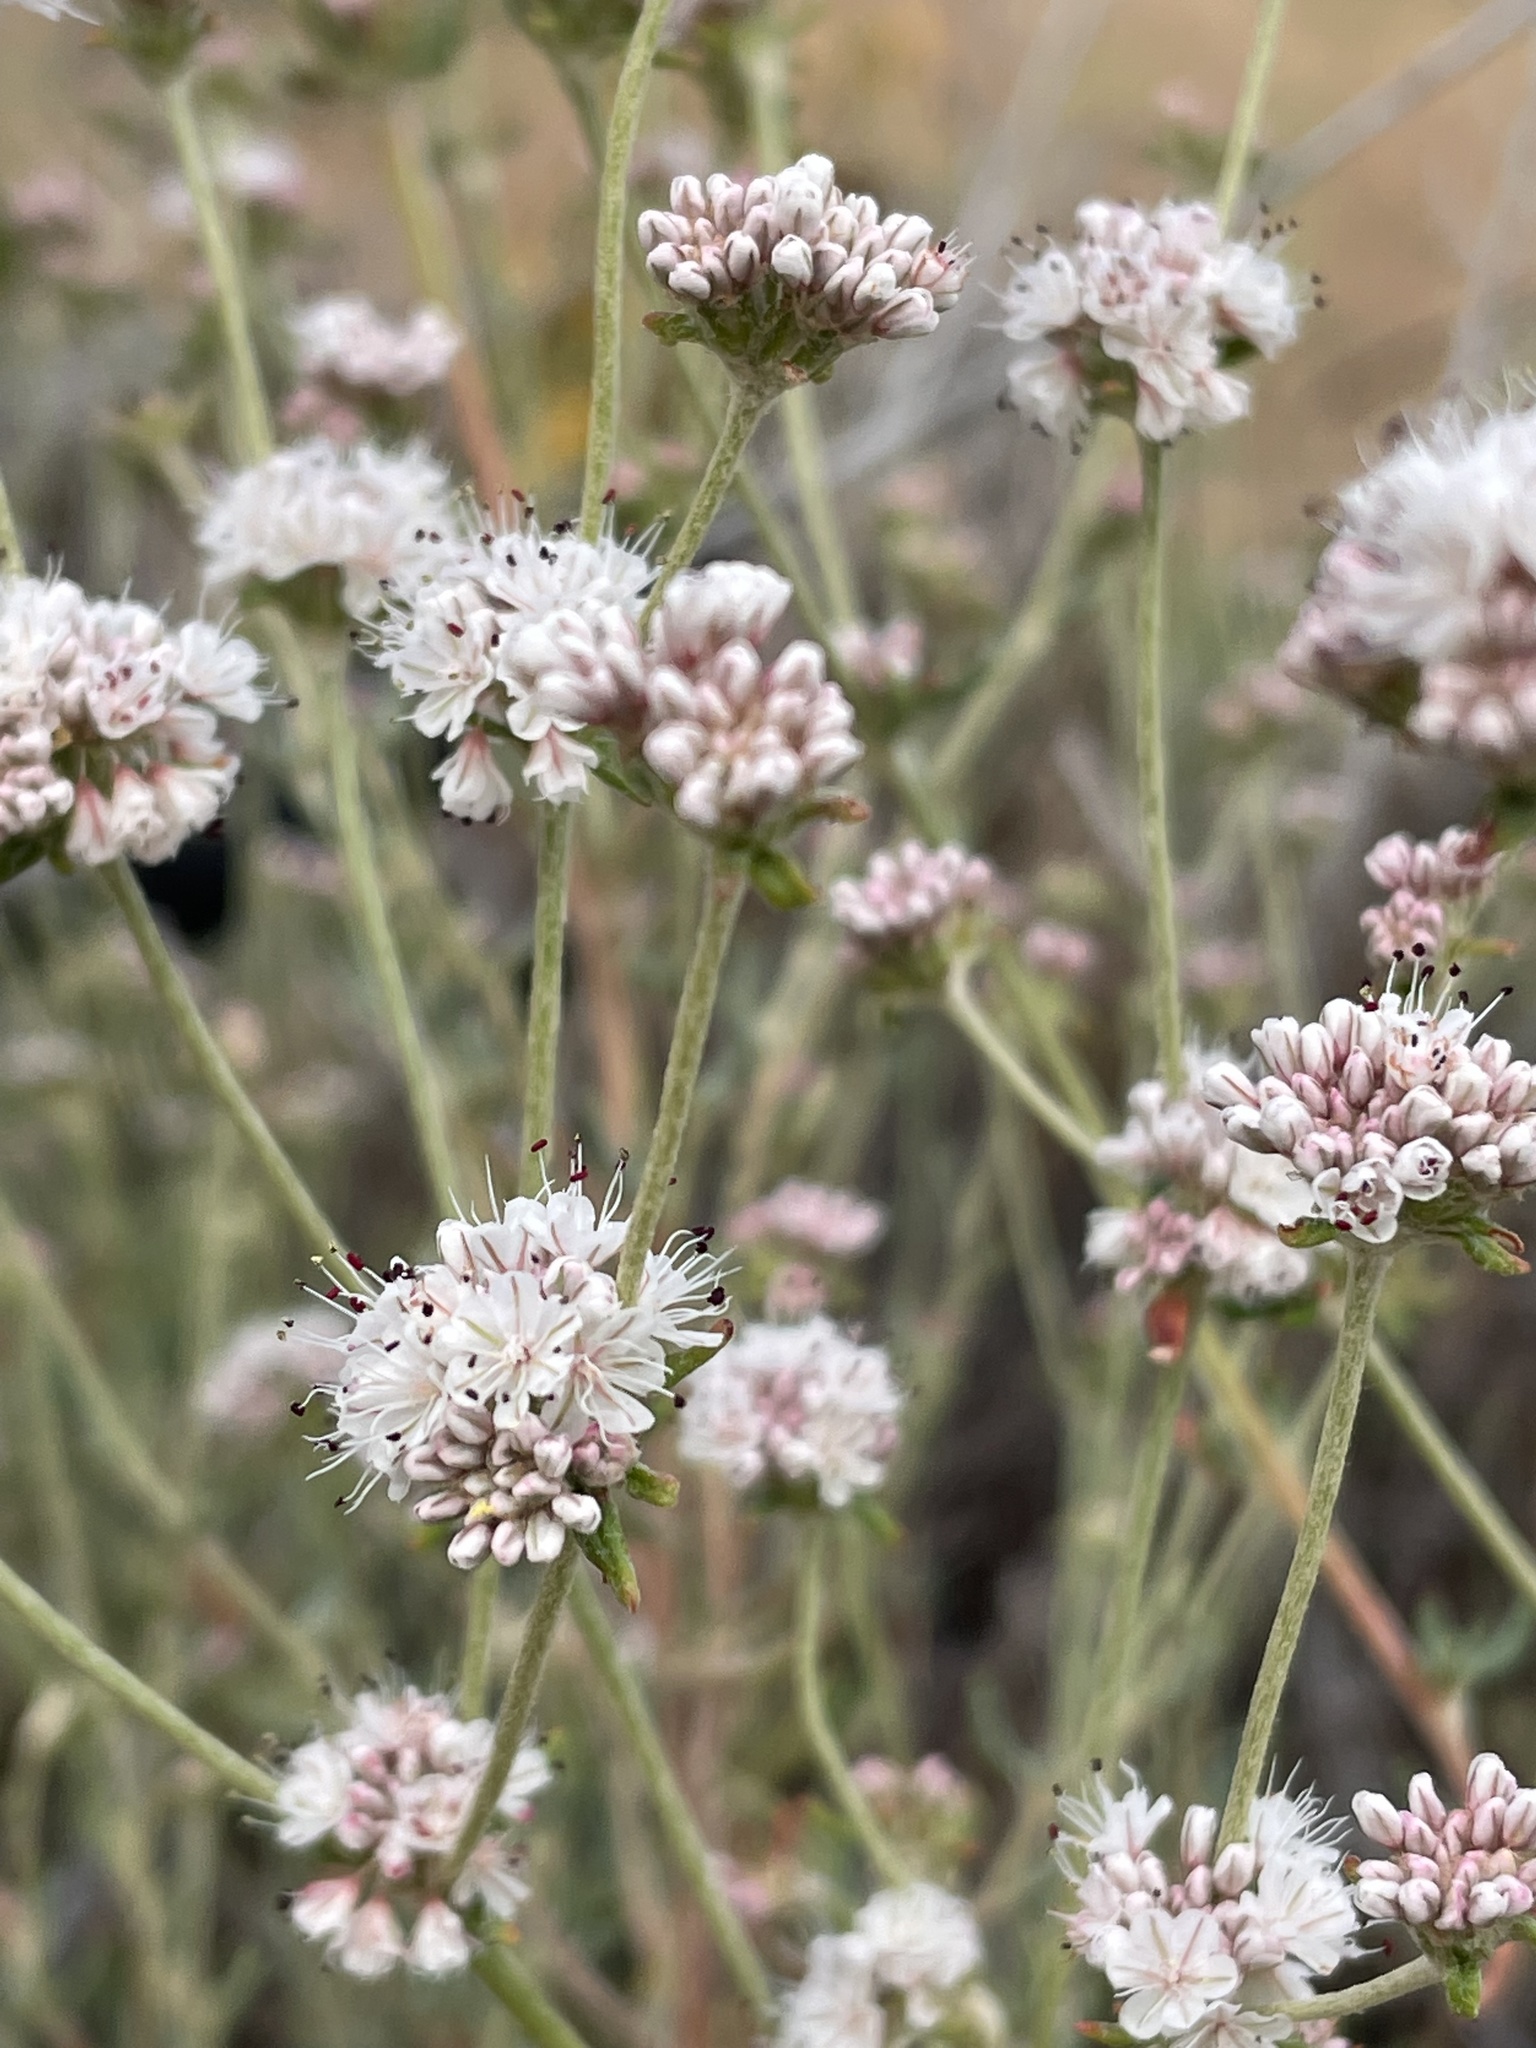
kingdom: Plantae
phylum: Tracheophyta
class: Magnoliopsida
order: Caryophyllales
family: Polygonaceae
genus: Eriogonum
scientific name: Eriogonum parvifolium
